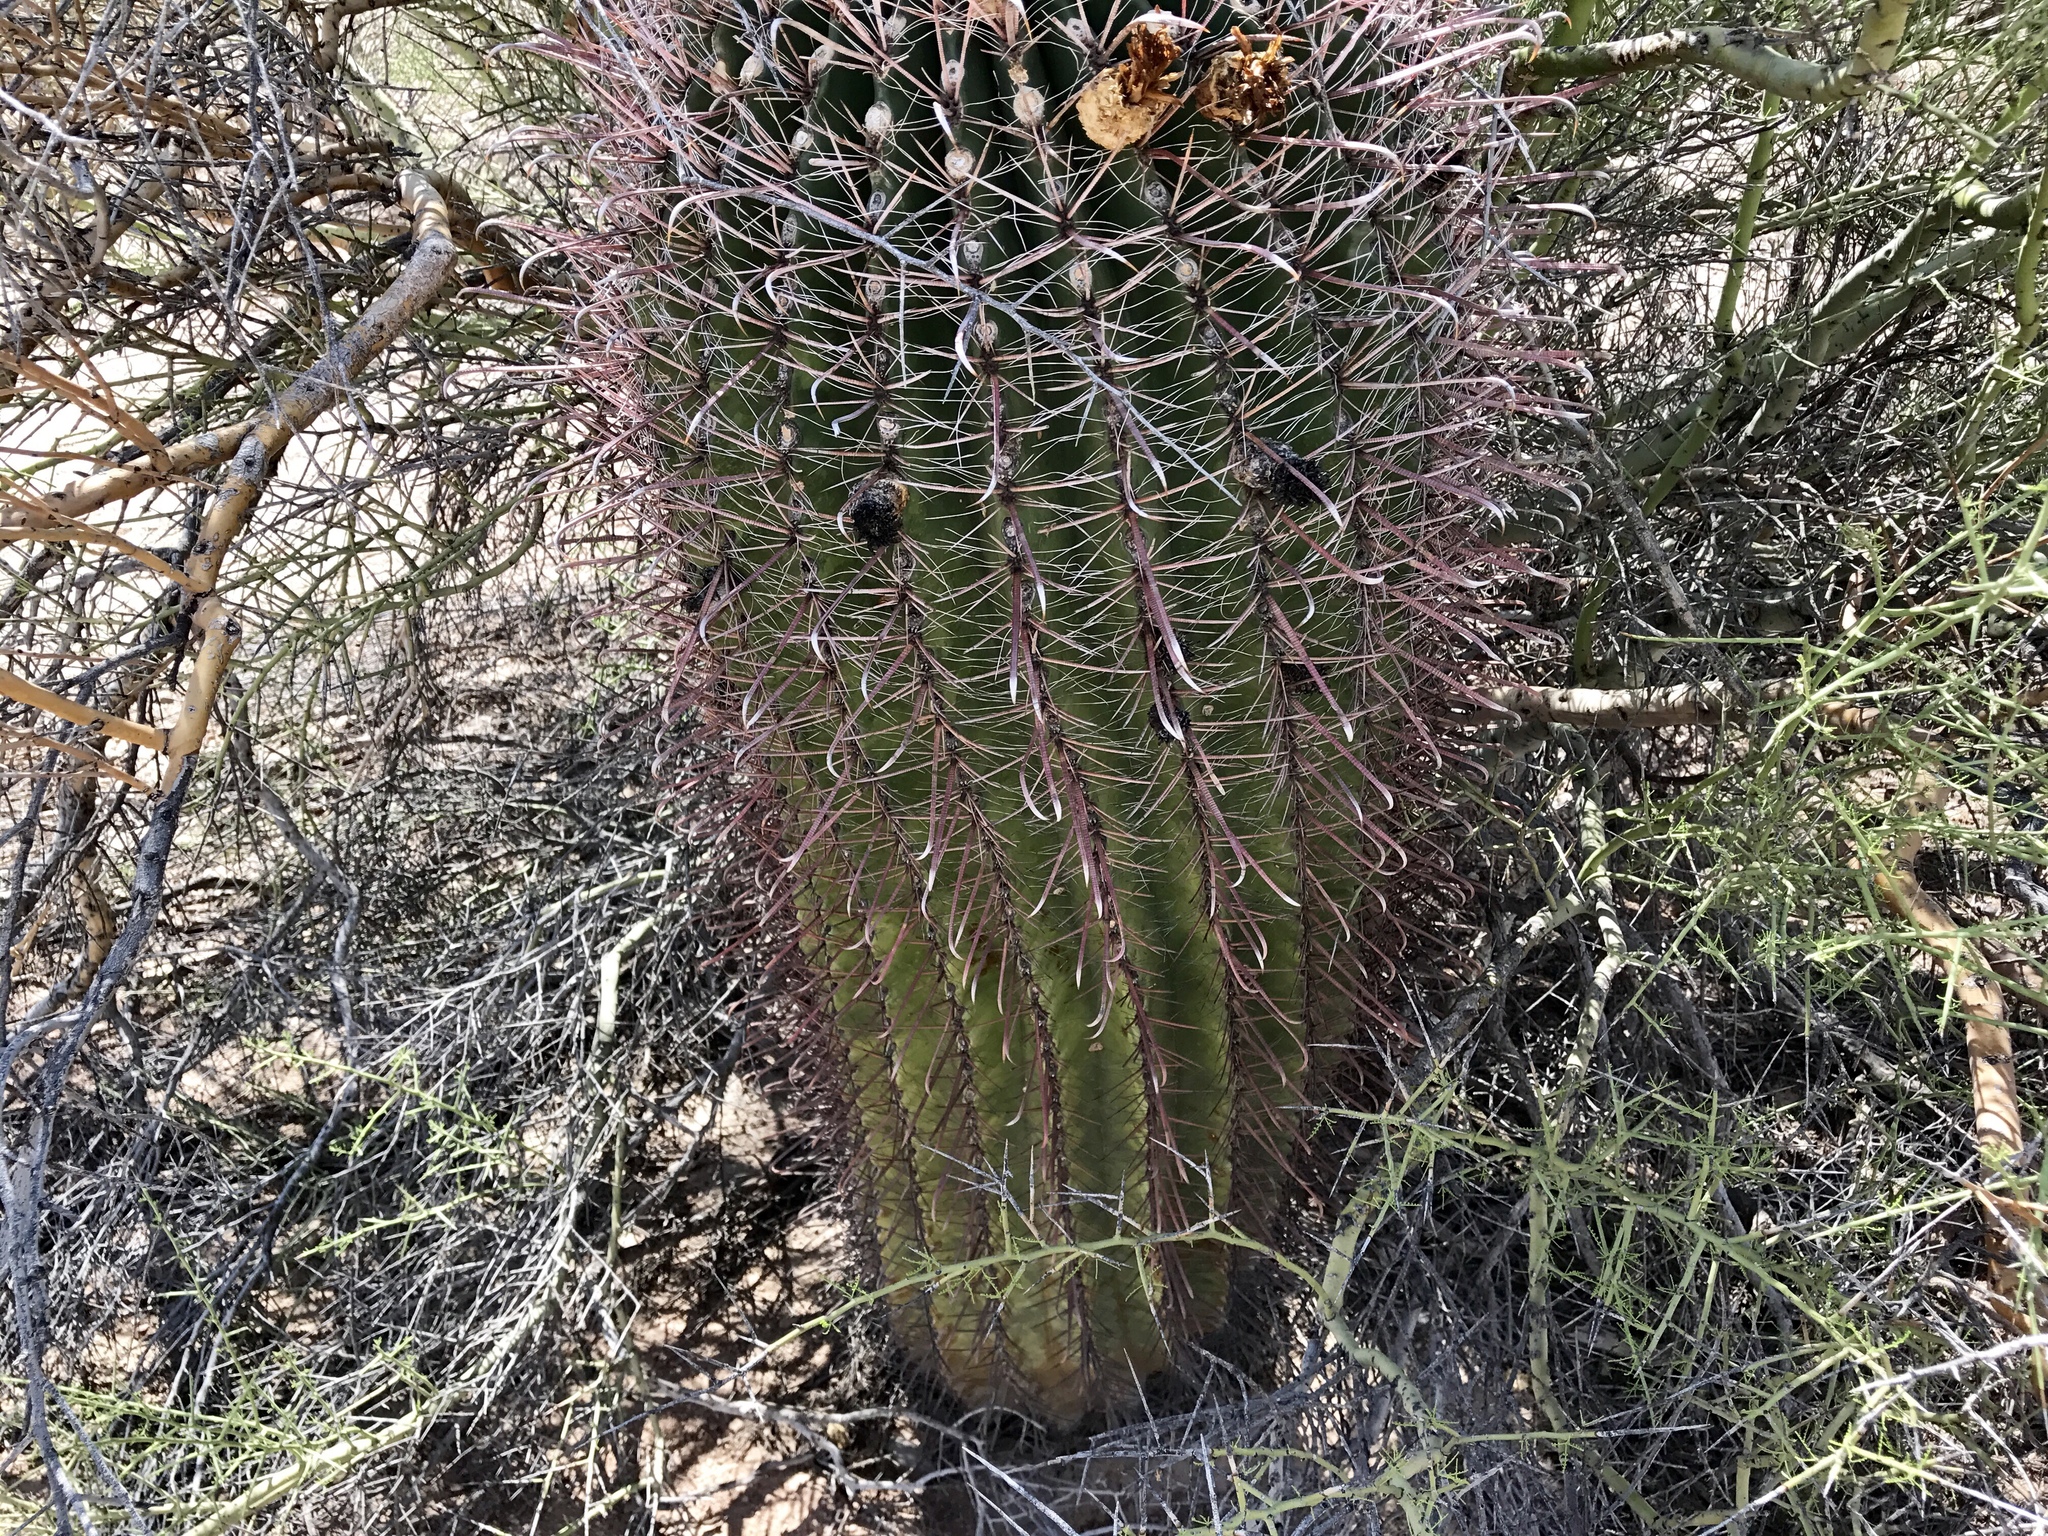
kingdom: Plantae
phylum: Tracheophyta
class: Magnoliopsida
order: Caryophyllales
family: Cactaceae
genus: Ferocactus
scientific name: Ferocactus wislizeni
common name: Candy barrel cactus
